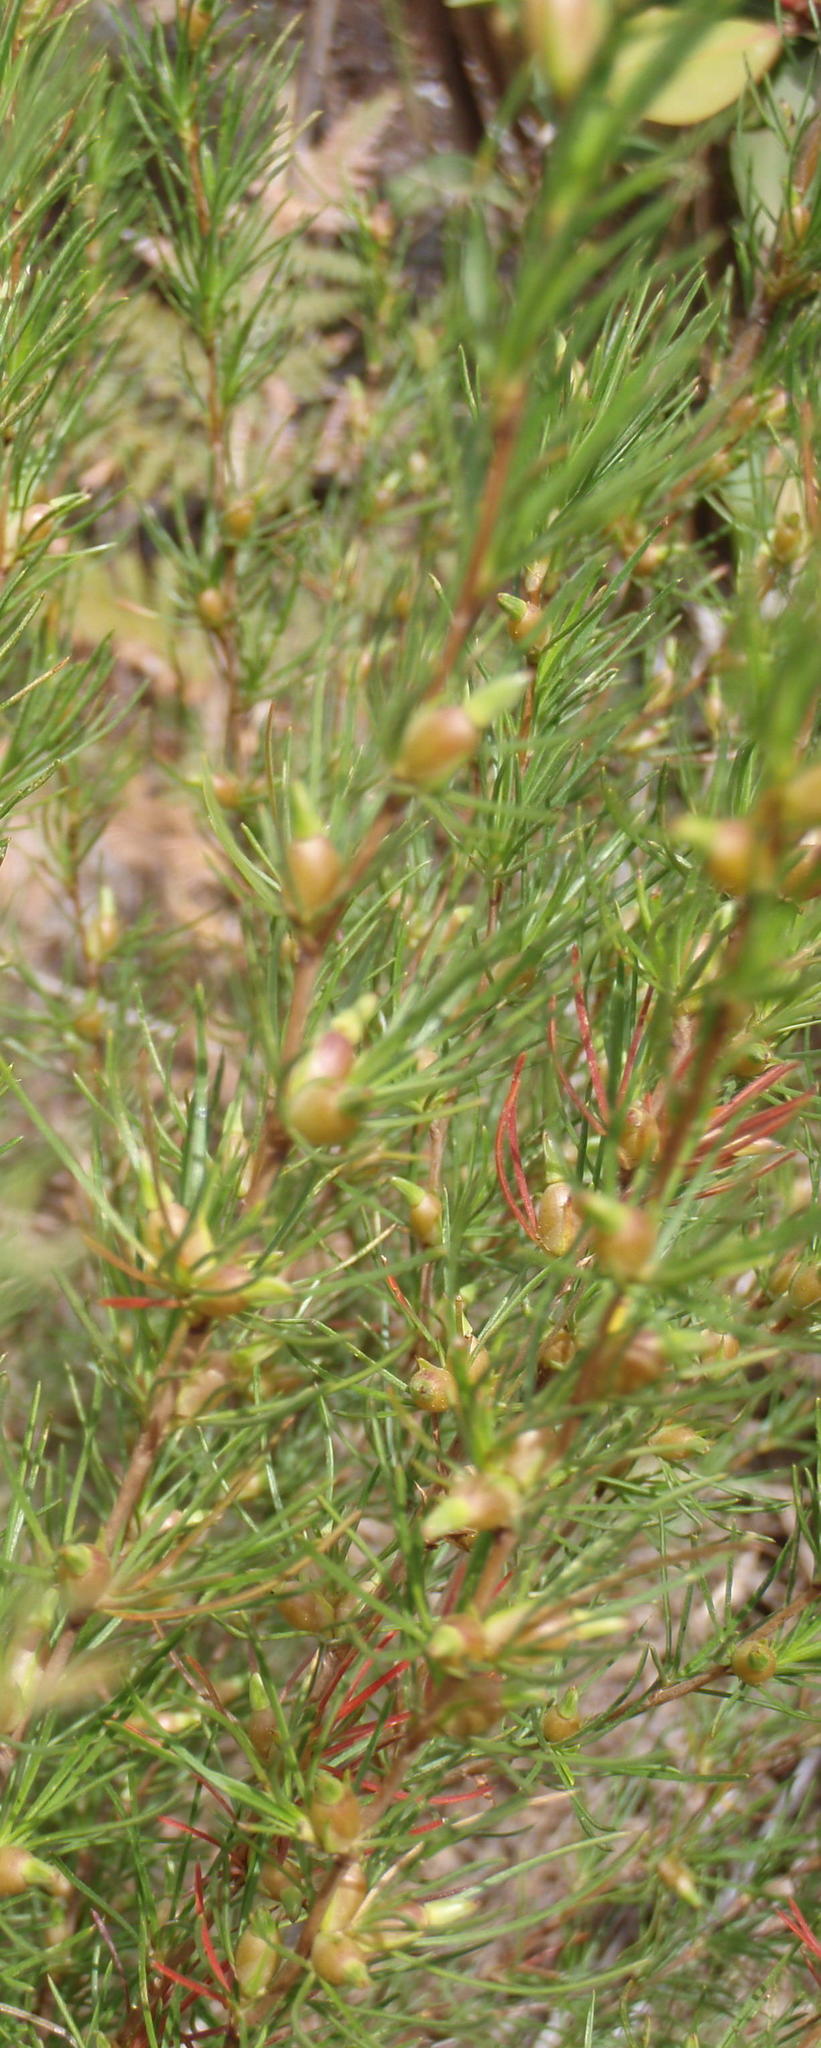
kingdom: Plantae
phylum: Tracheophyta
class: Magnoliopsida
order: Rosales
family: Rosaceae
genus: Cliffortia
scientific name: Cliffortia burchellii
